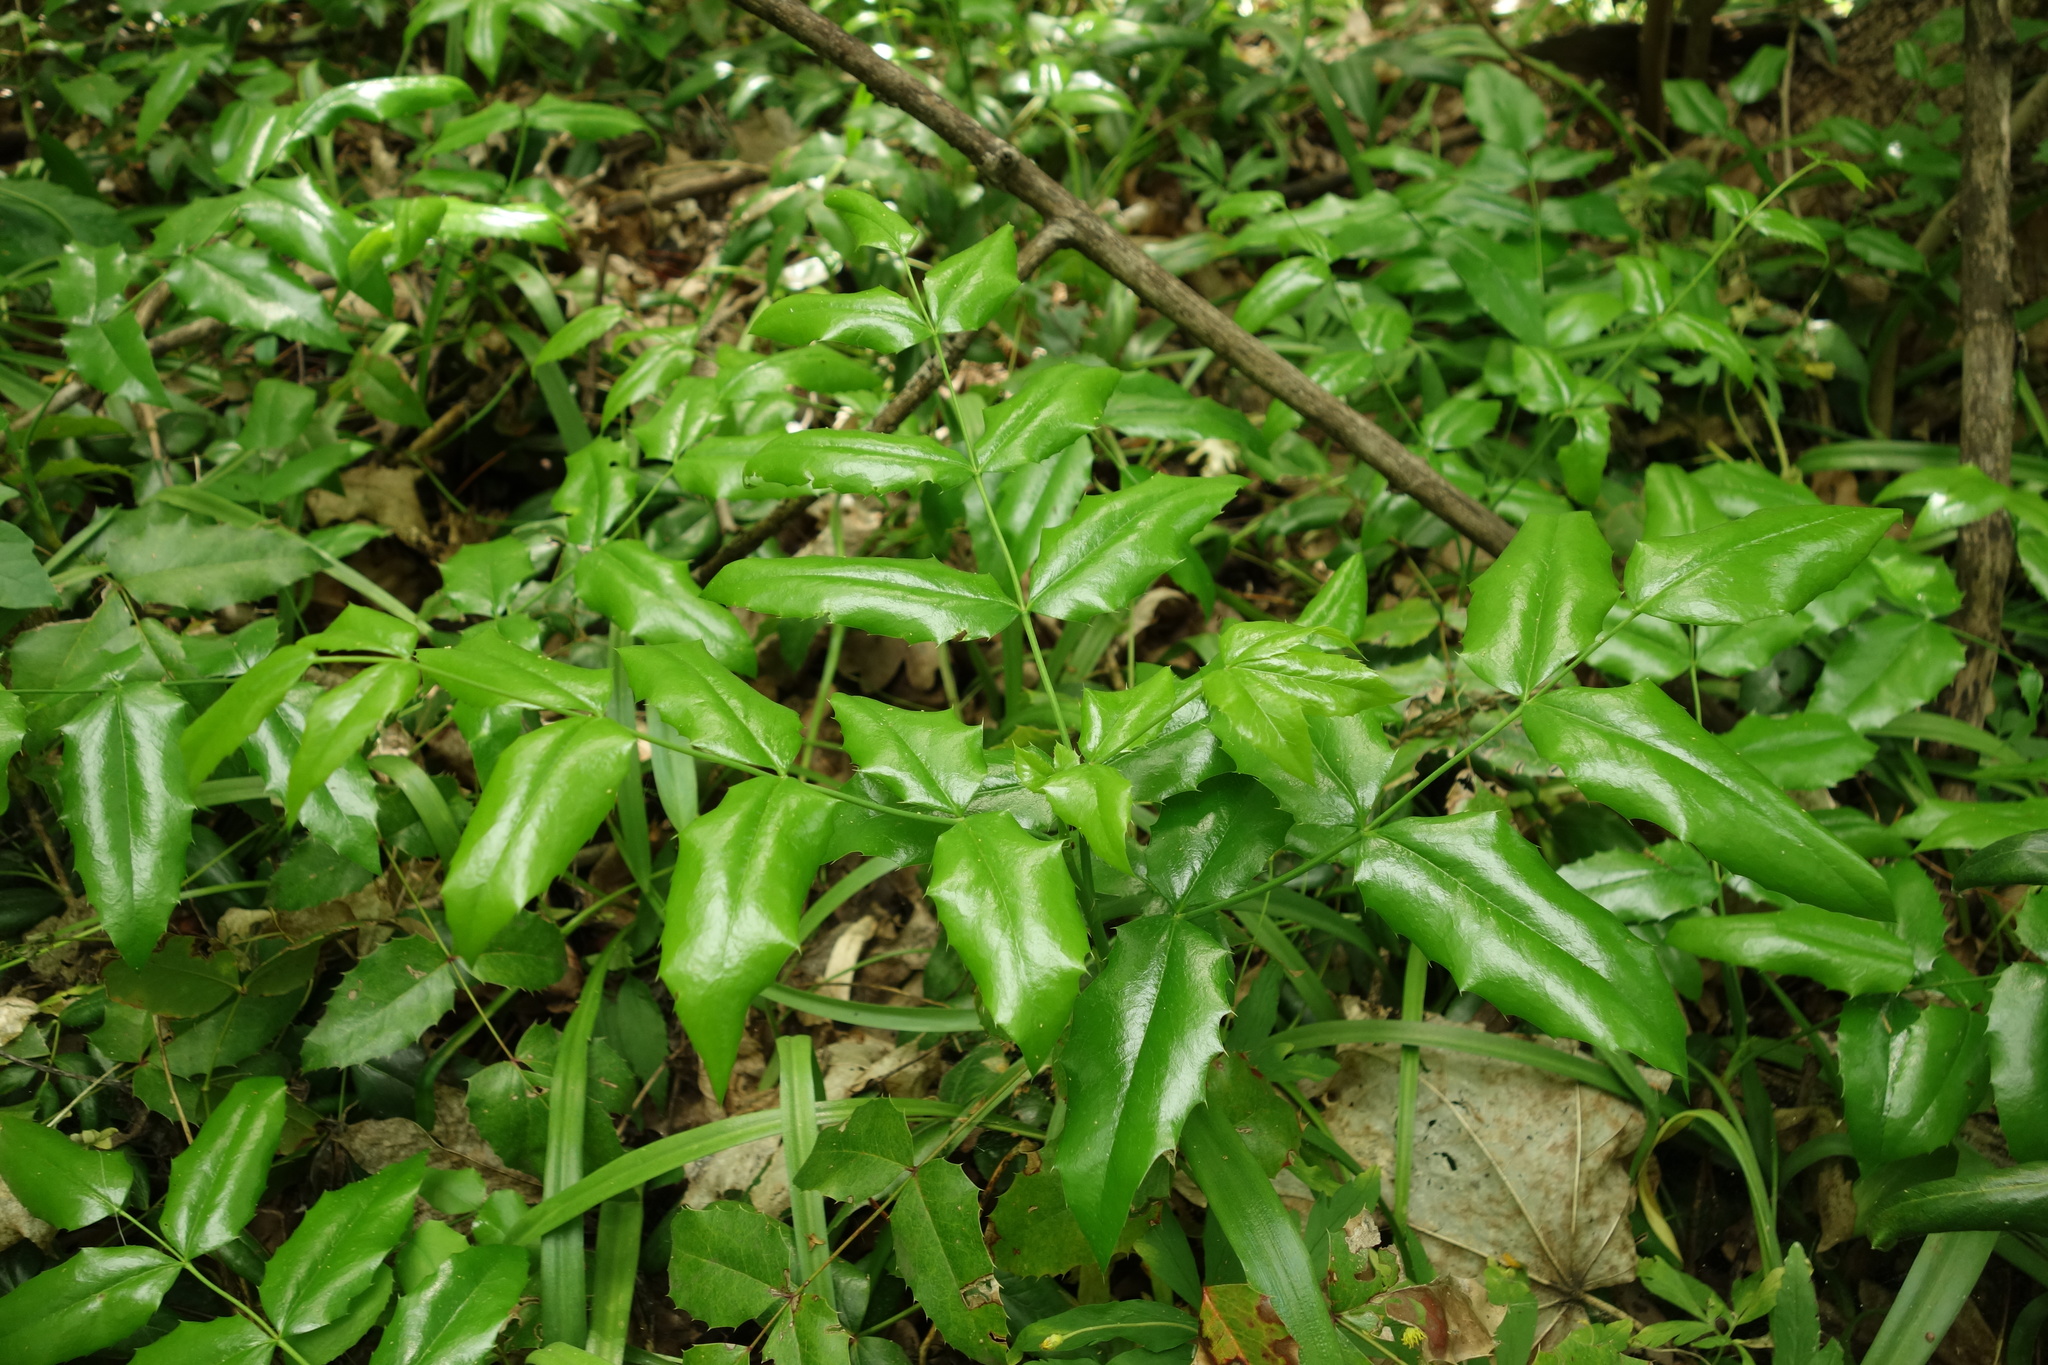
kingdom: Plantae
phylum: Tracheophyta
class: Magnoliopsida
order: Ranunculales
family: Berberidaceae
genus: Mahonia
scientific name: Mahonia aquifolium
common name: Oregon-grape
